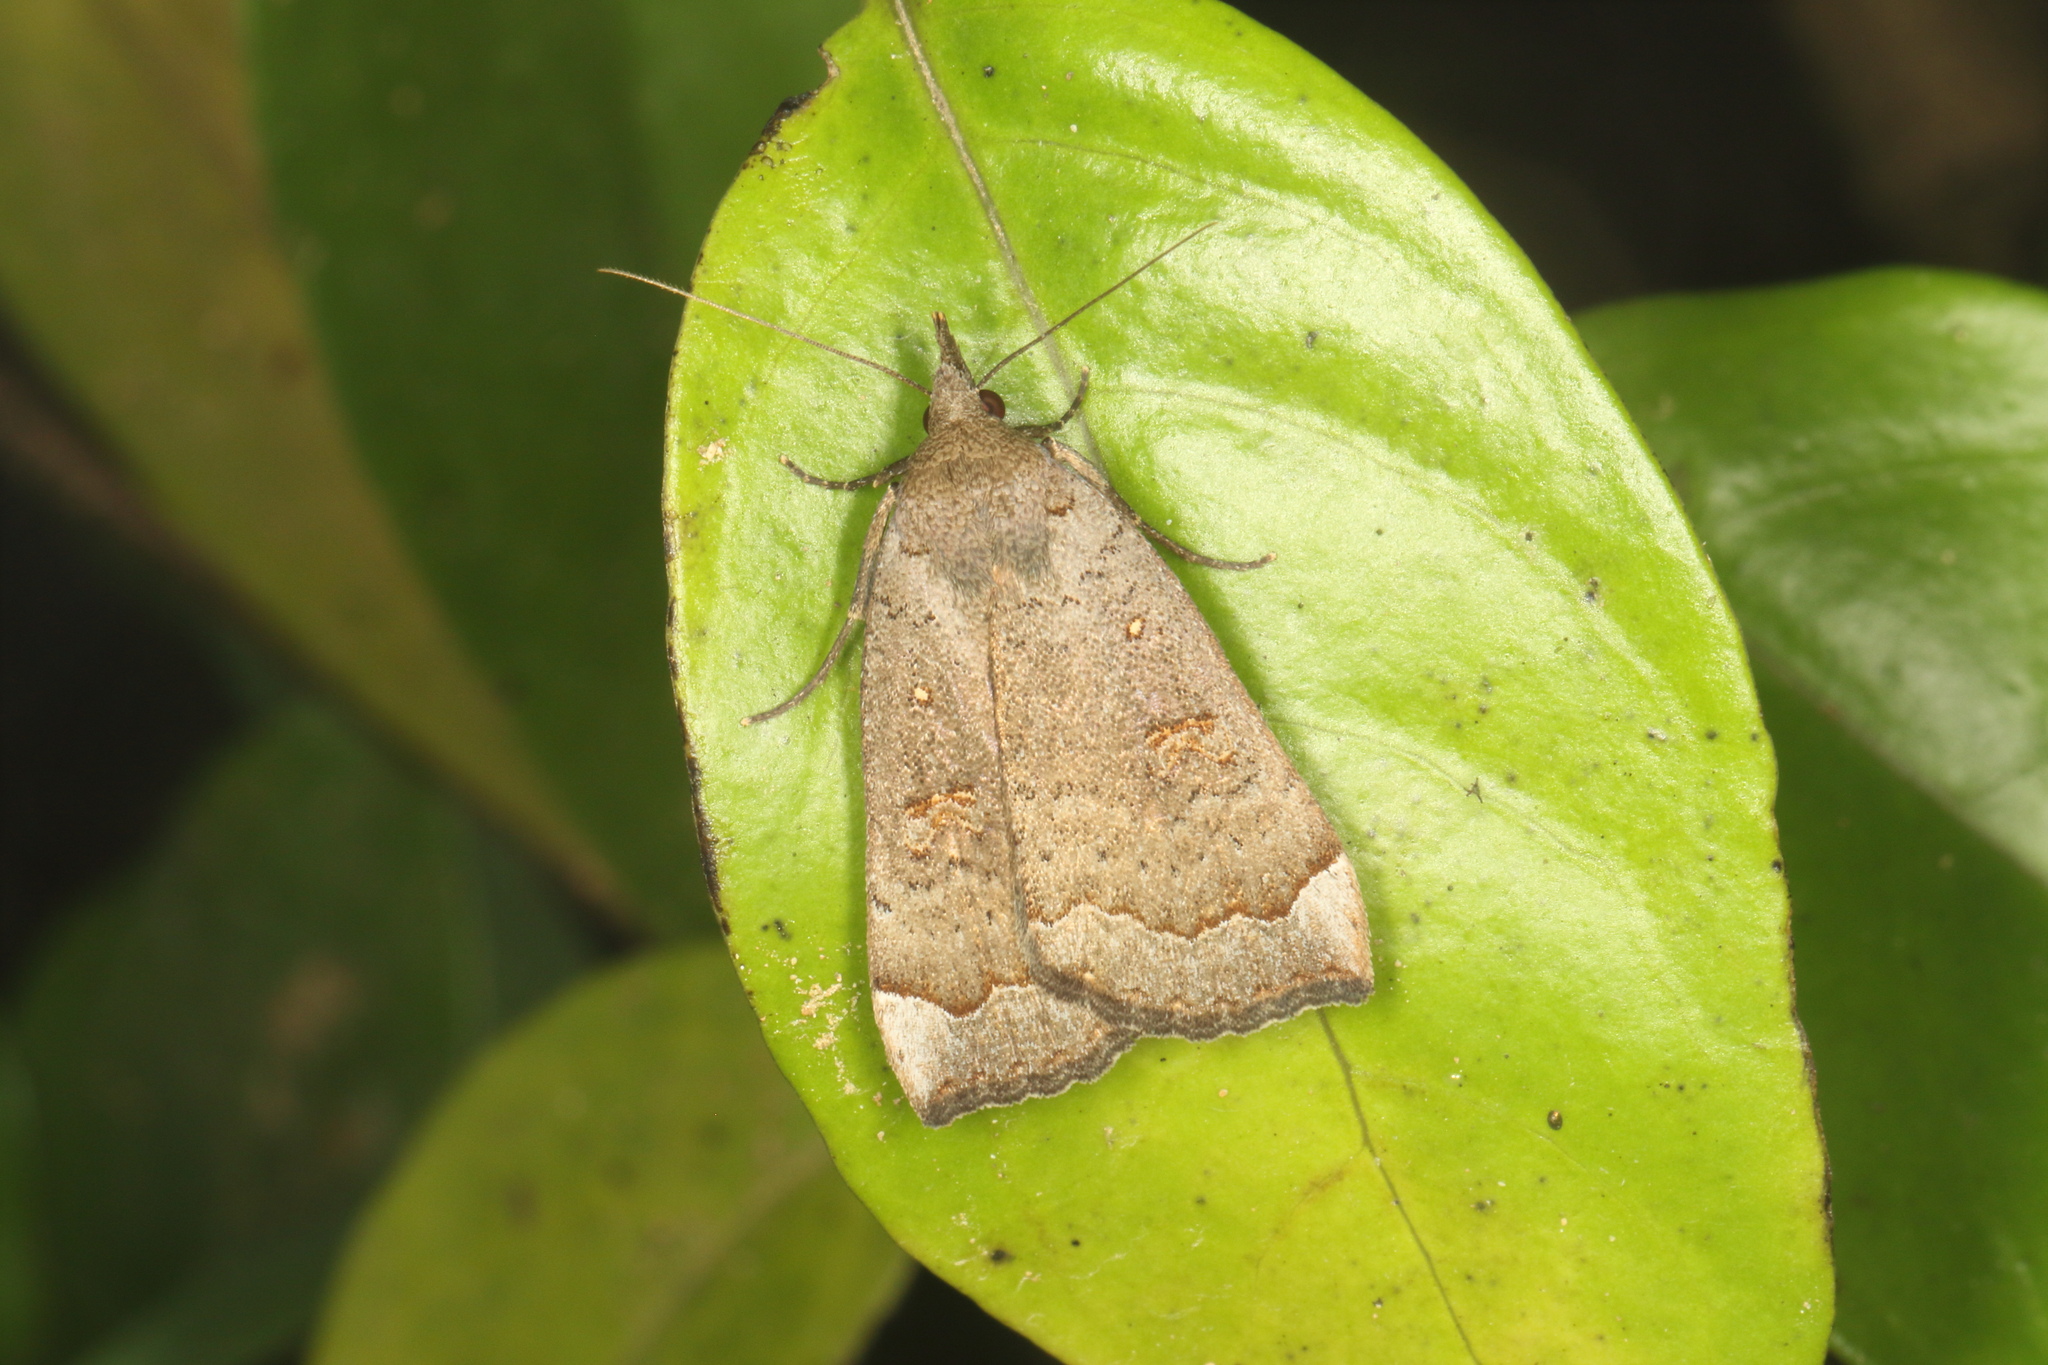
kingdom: Animalia
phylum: Arthropoda
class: Insecta
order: Lepidoptera
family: Erebidae
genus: Rhapsa
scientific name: Rhapsa scotosialis
